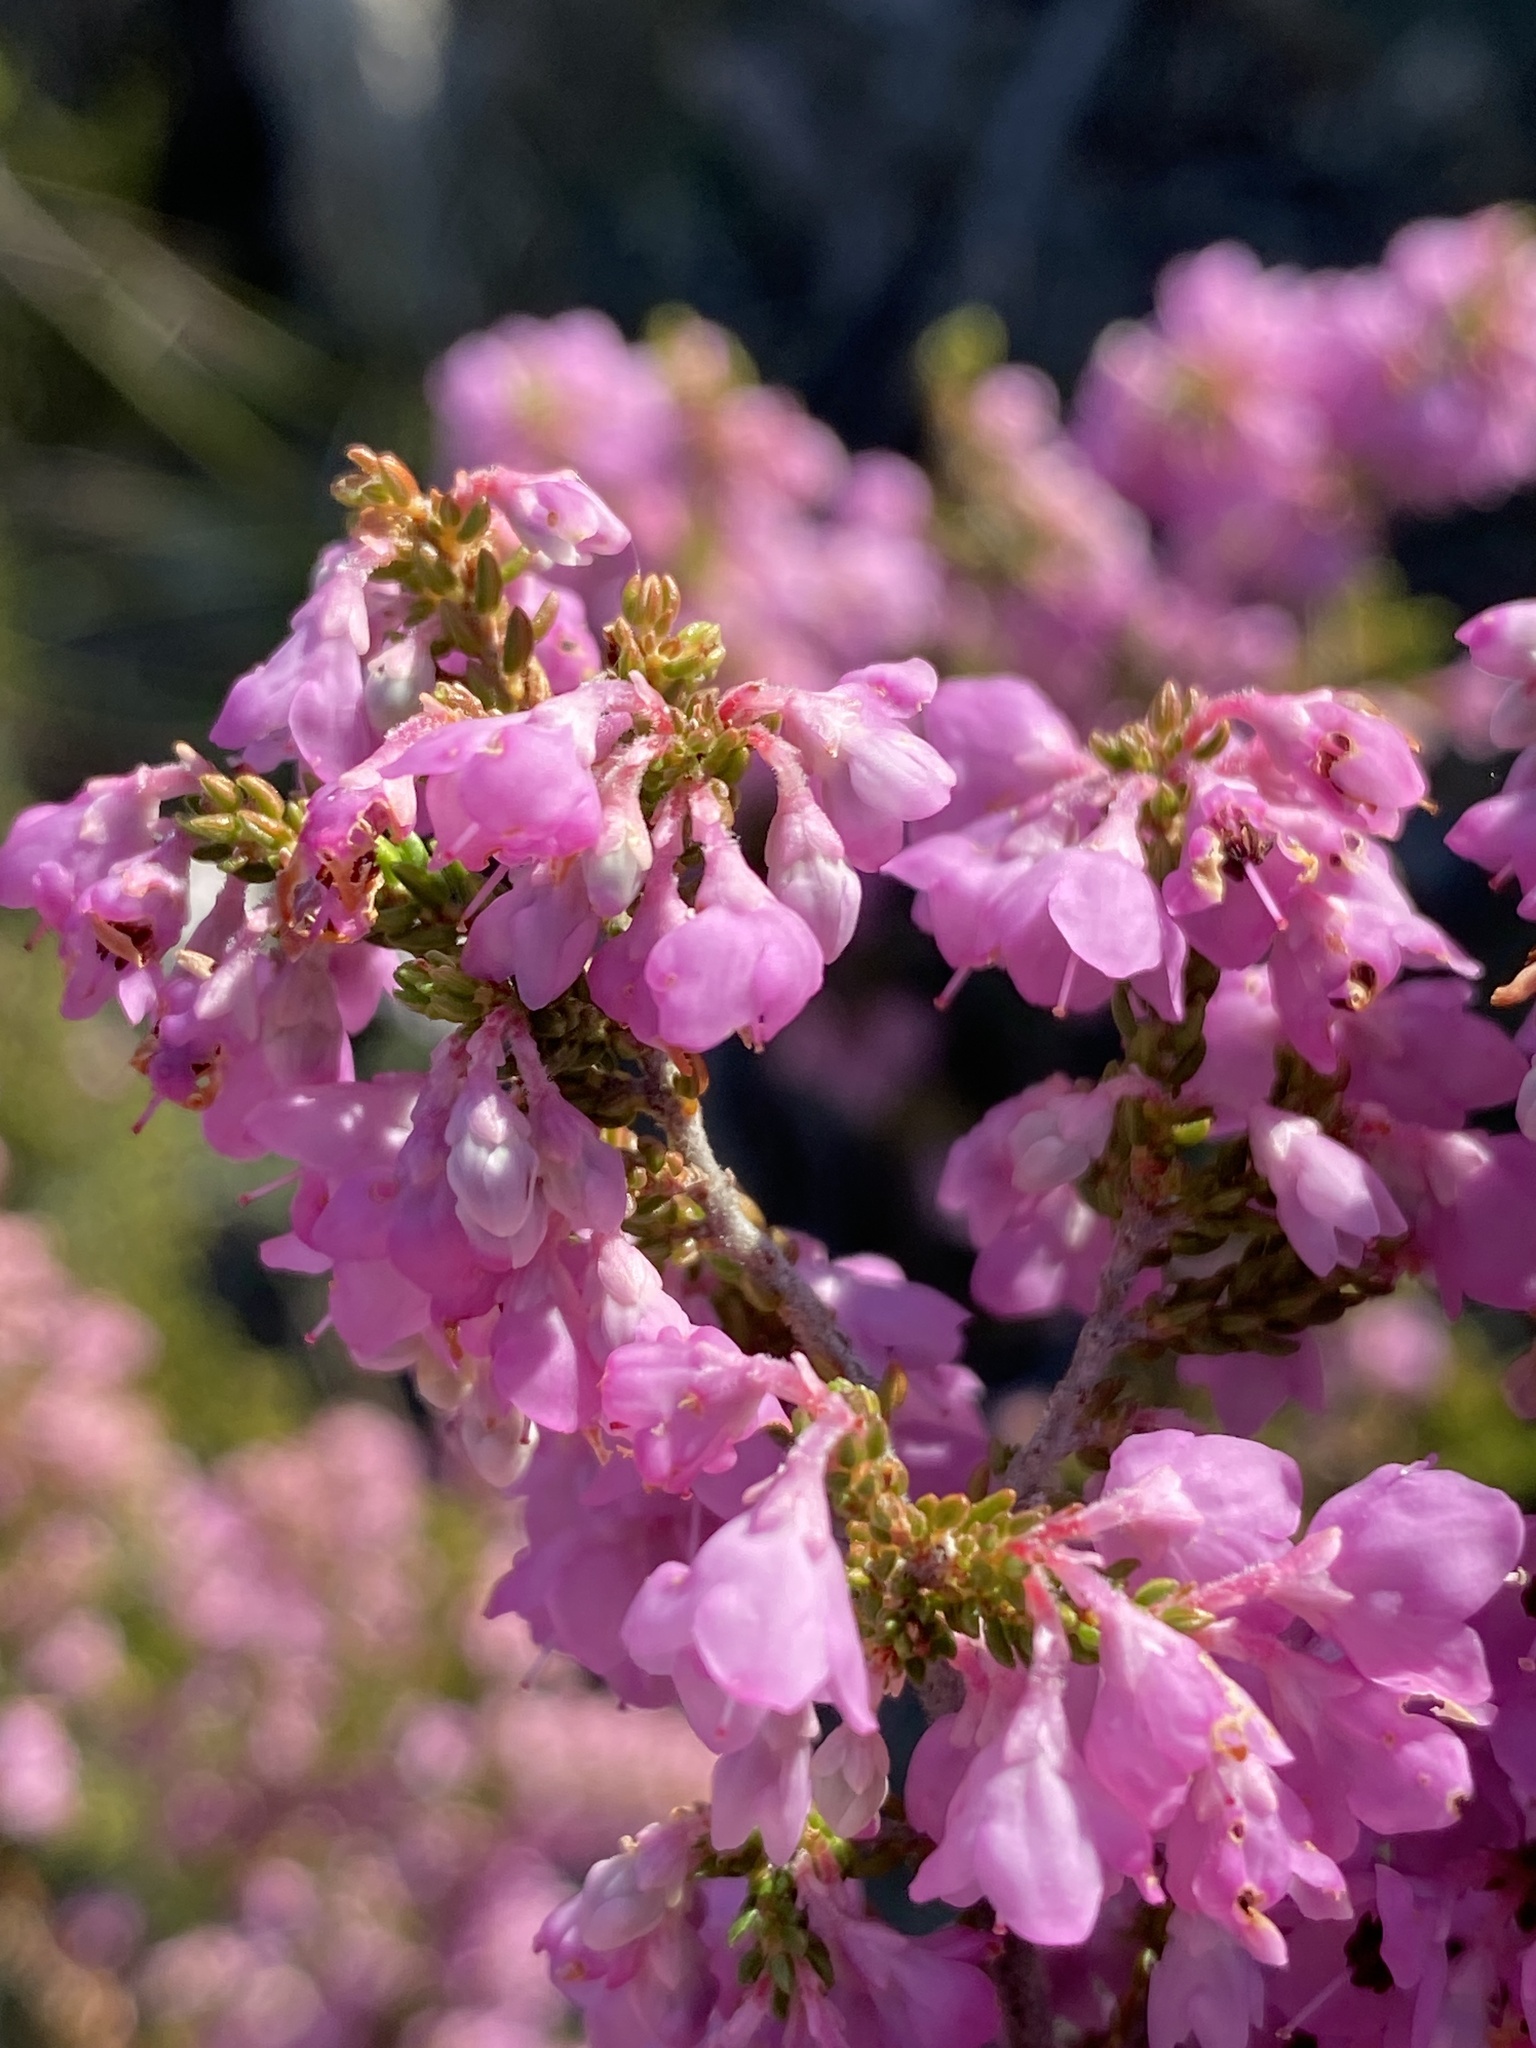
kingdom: Plantae
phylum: Tracheophyta
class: Magnoliopsida
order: Ericales
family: Ericaceae
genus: Erica
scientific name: Erica newdigatei
